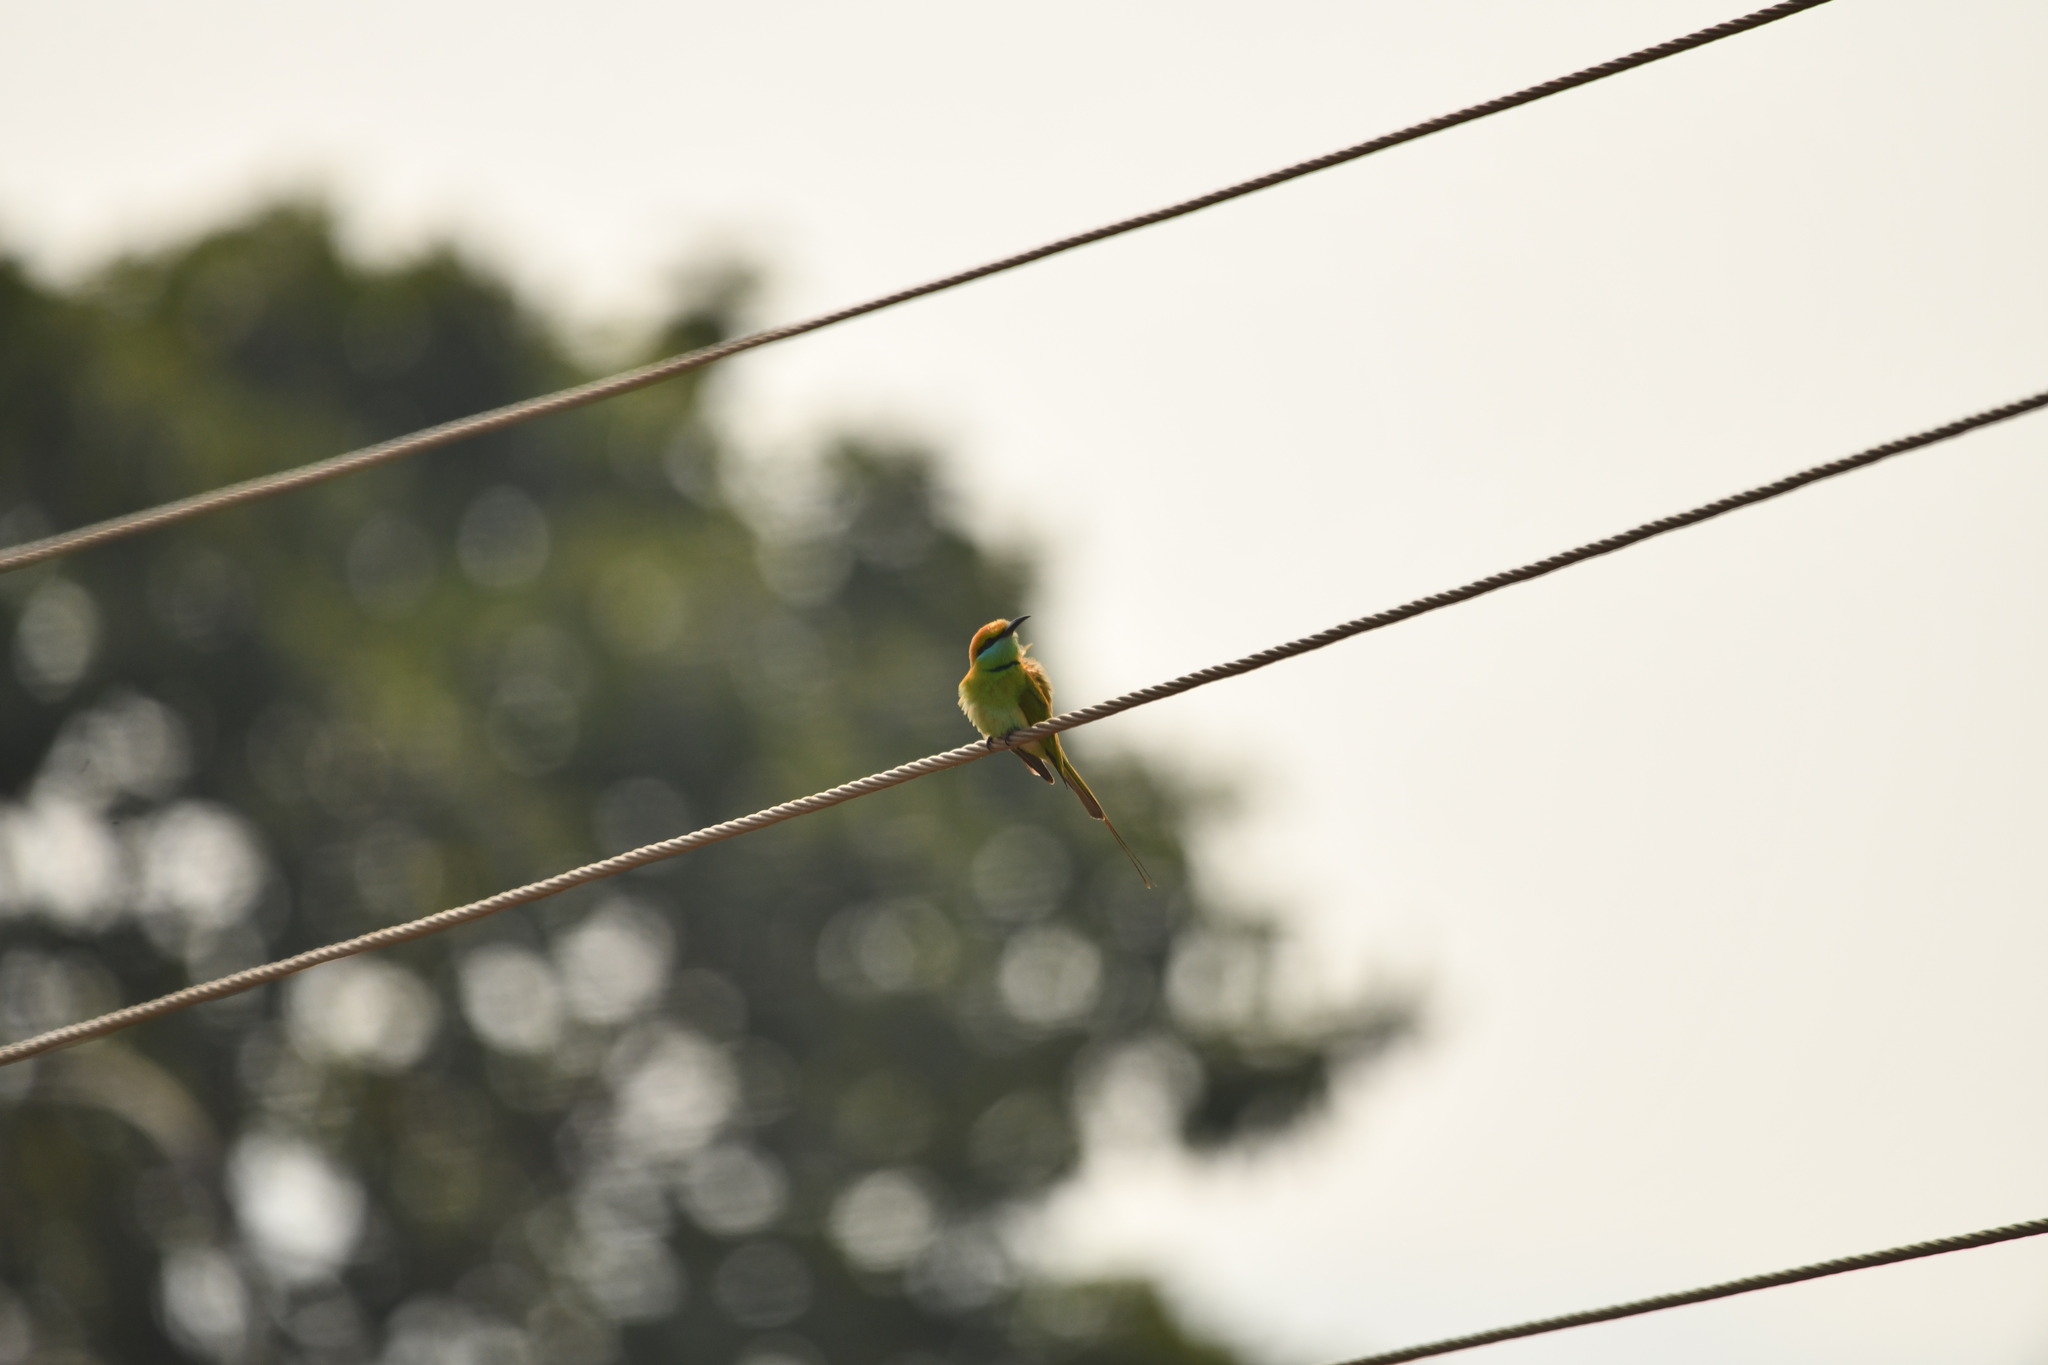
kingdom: Animalia
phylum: Chordata
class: Aves
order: Coraciiformes
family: Meropidae
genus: Merops
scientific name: Merops orientalis
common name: Green bee-eater
